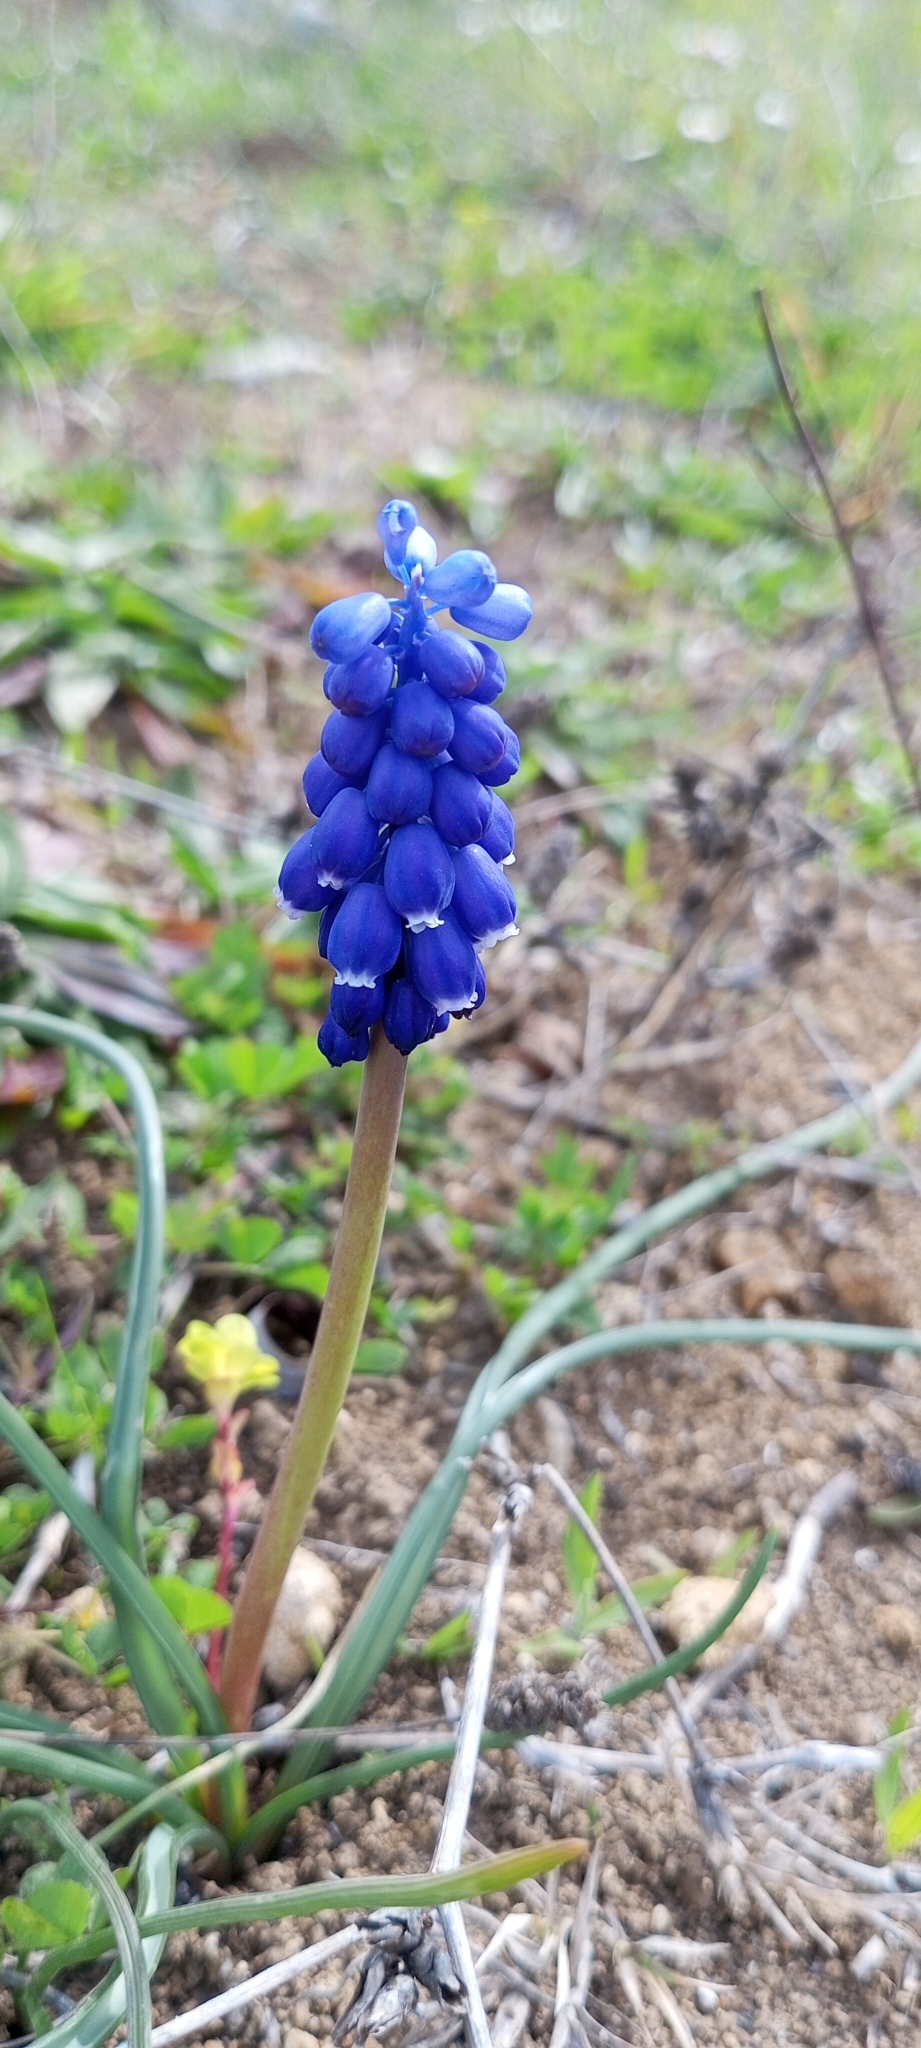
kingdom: Plantae
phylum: Tracheophyta
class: Liliopsida
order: Asparagales
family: Asparagaceae
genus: Muscari
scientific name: Muscari armeniacum
